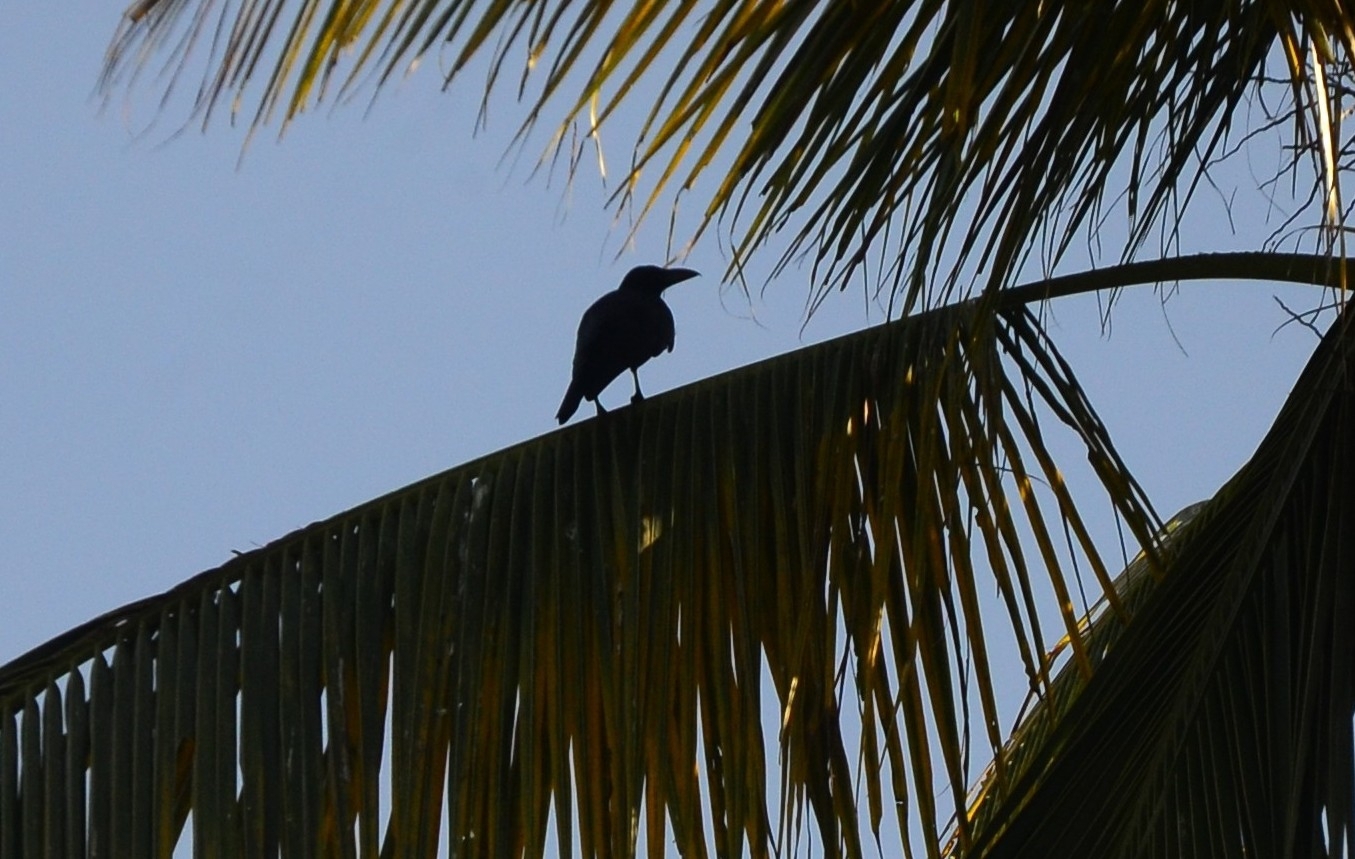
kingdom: Animalia
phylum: Chordata
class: Aves
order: Passeriformes
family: Corvidae
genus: Corvus
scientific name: Corvus splendens
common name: House crow
